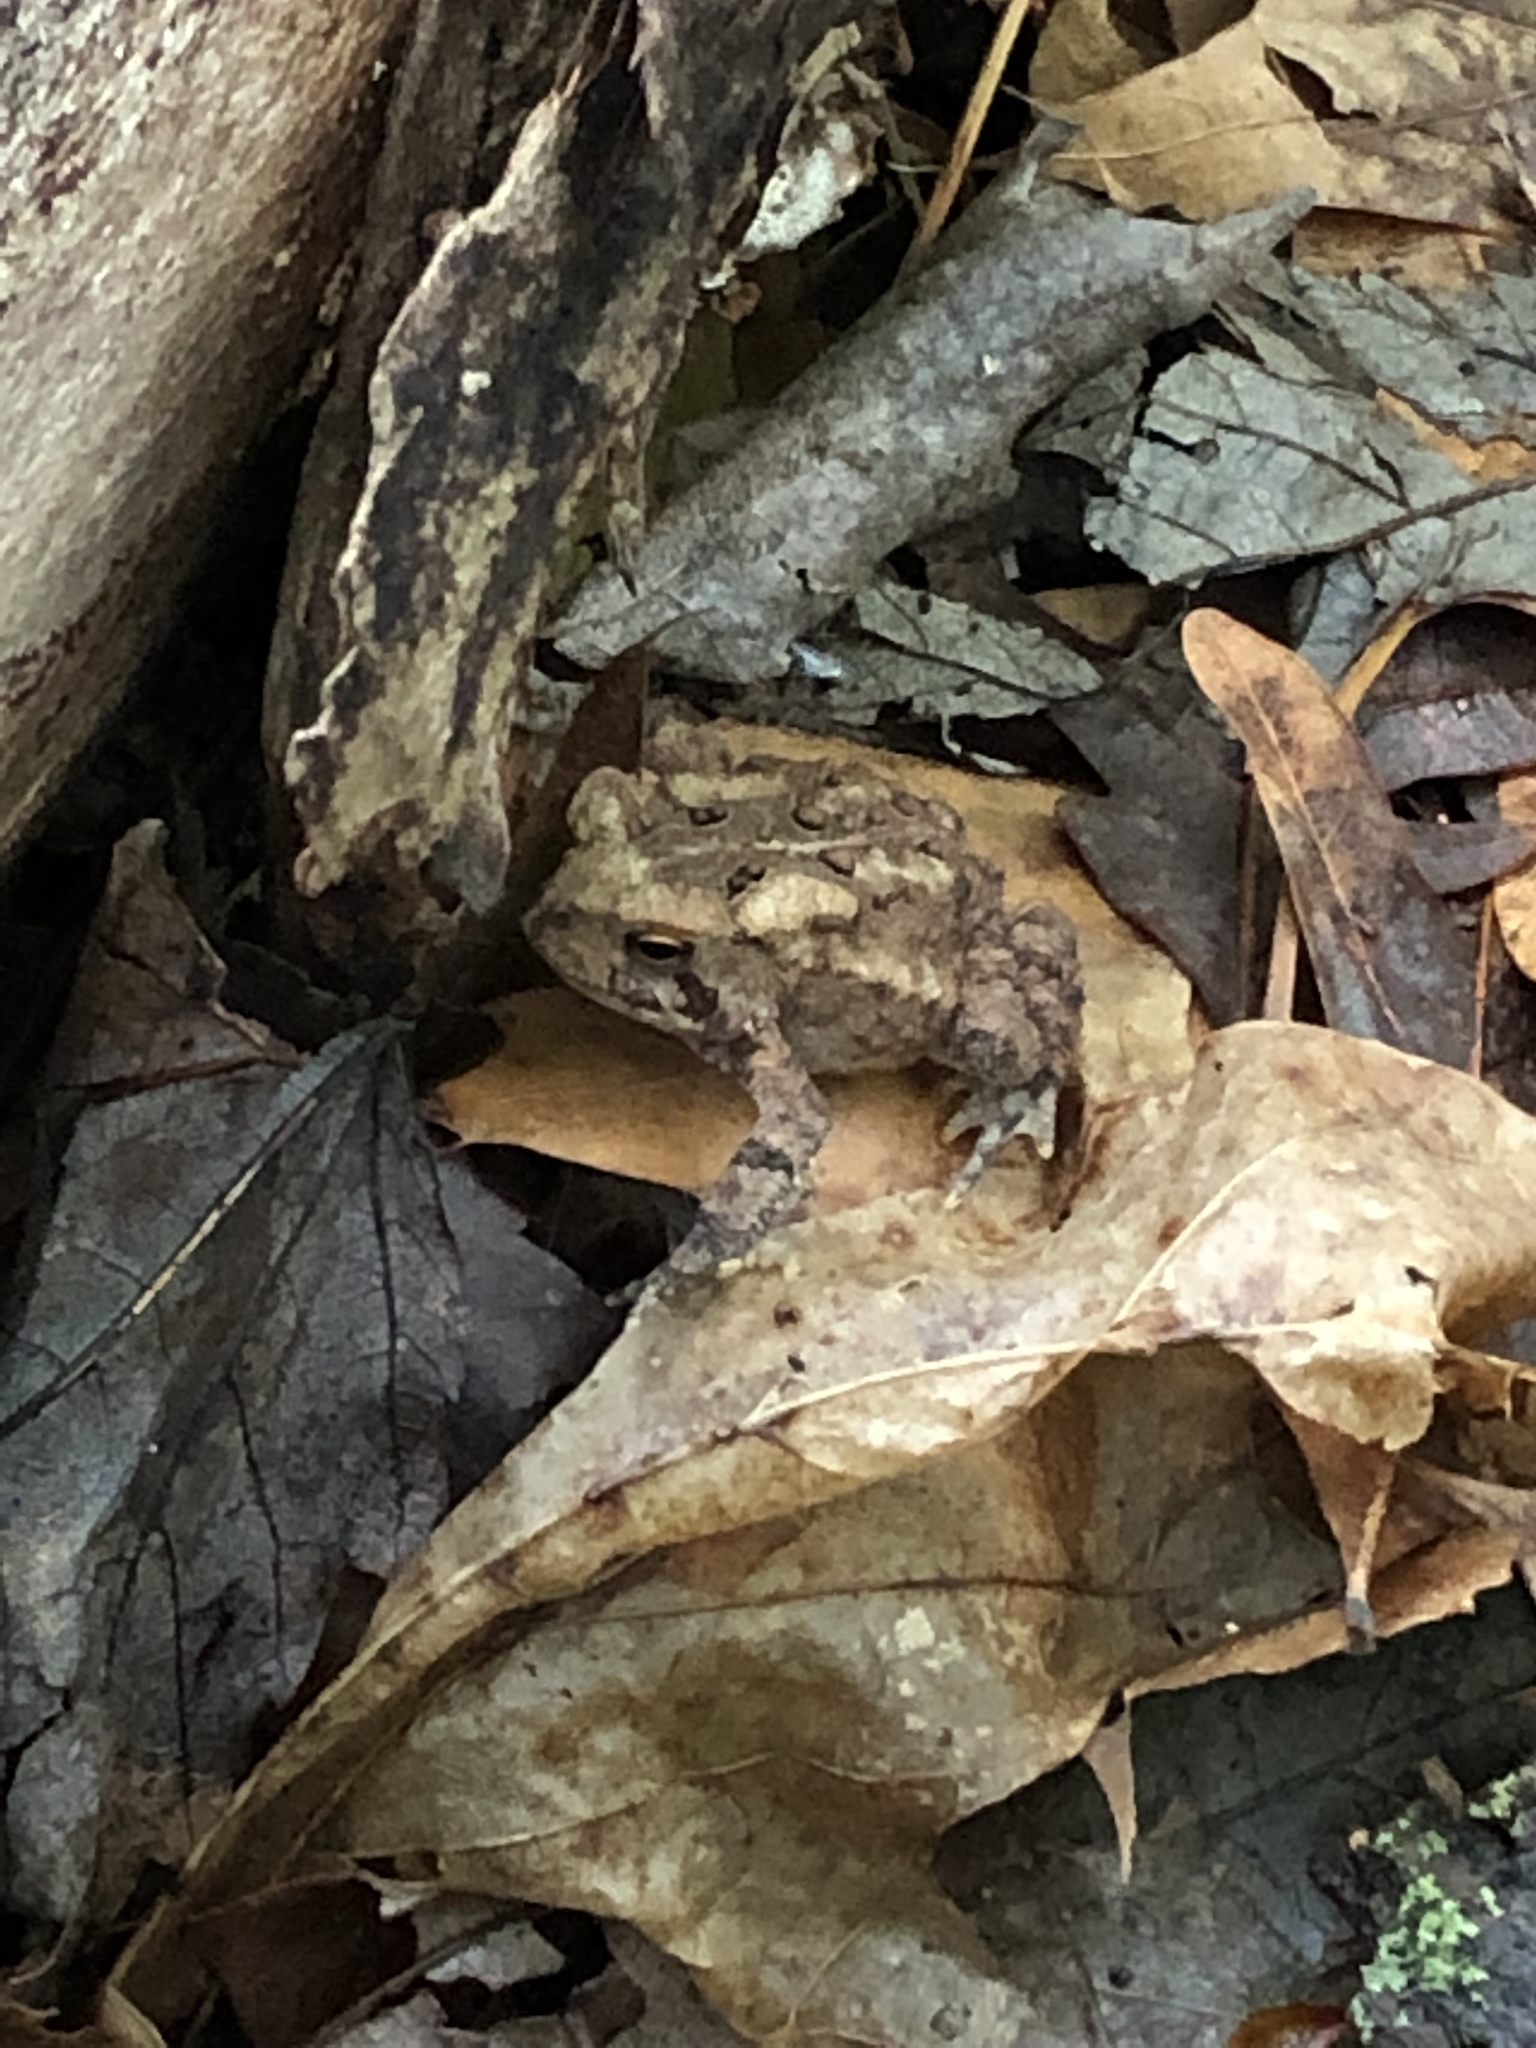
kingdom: Animalia
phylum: Chordata
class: Amphibia
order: Anura
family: Bufonidae
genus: Anaxyrus
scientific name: Anaxyrus americanus
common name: American toad
